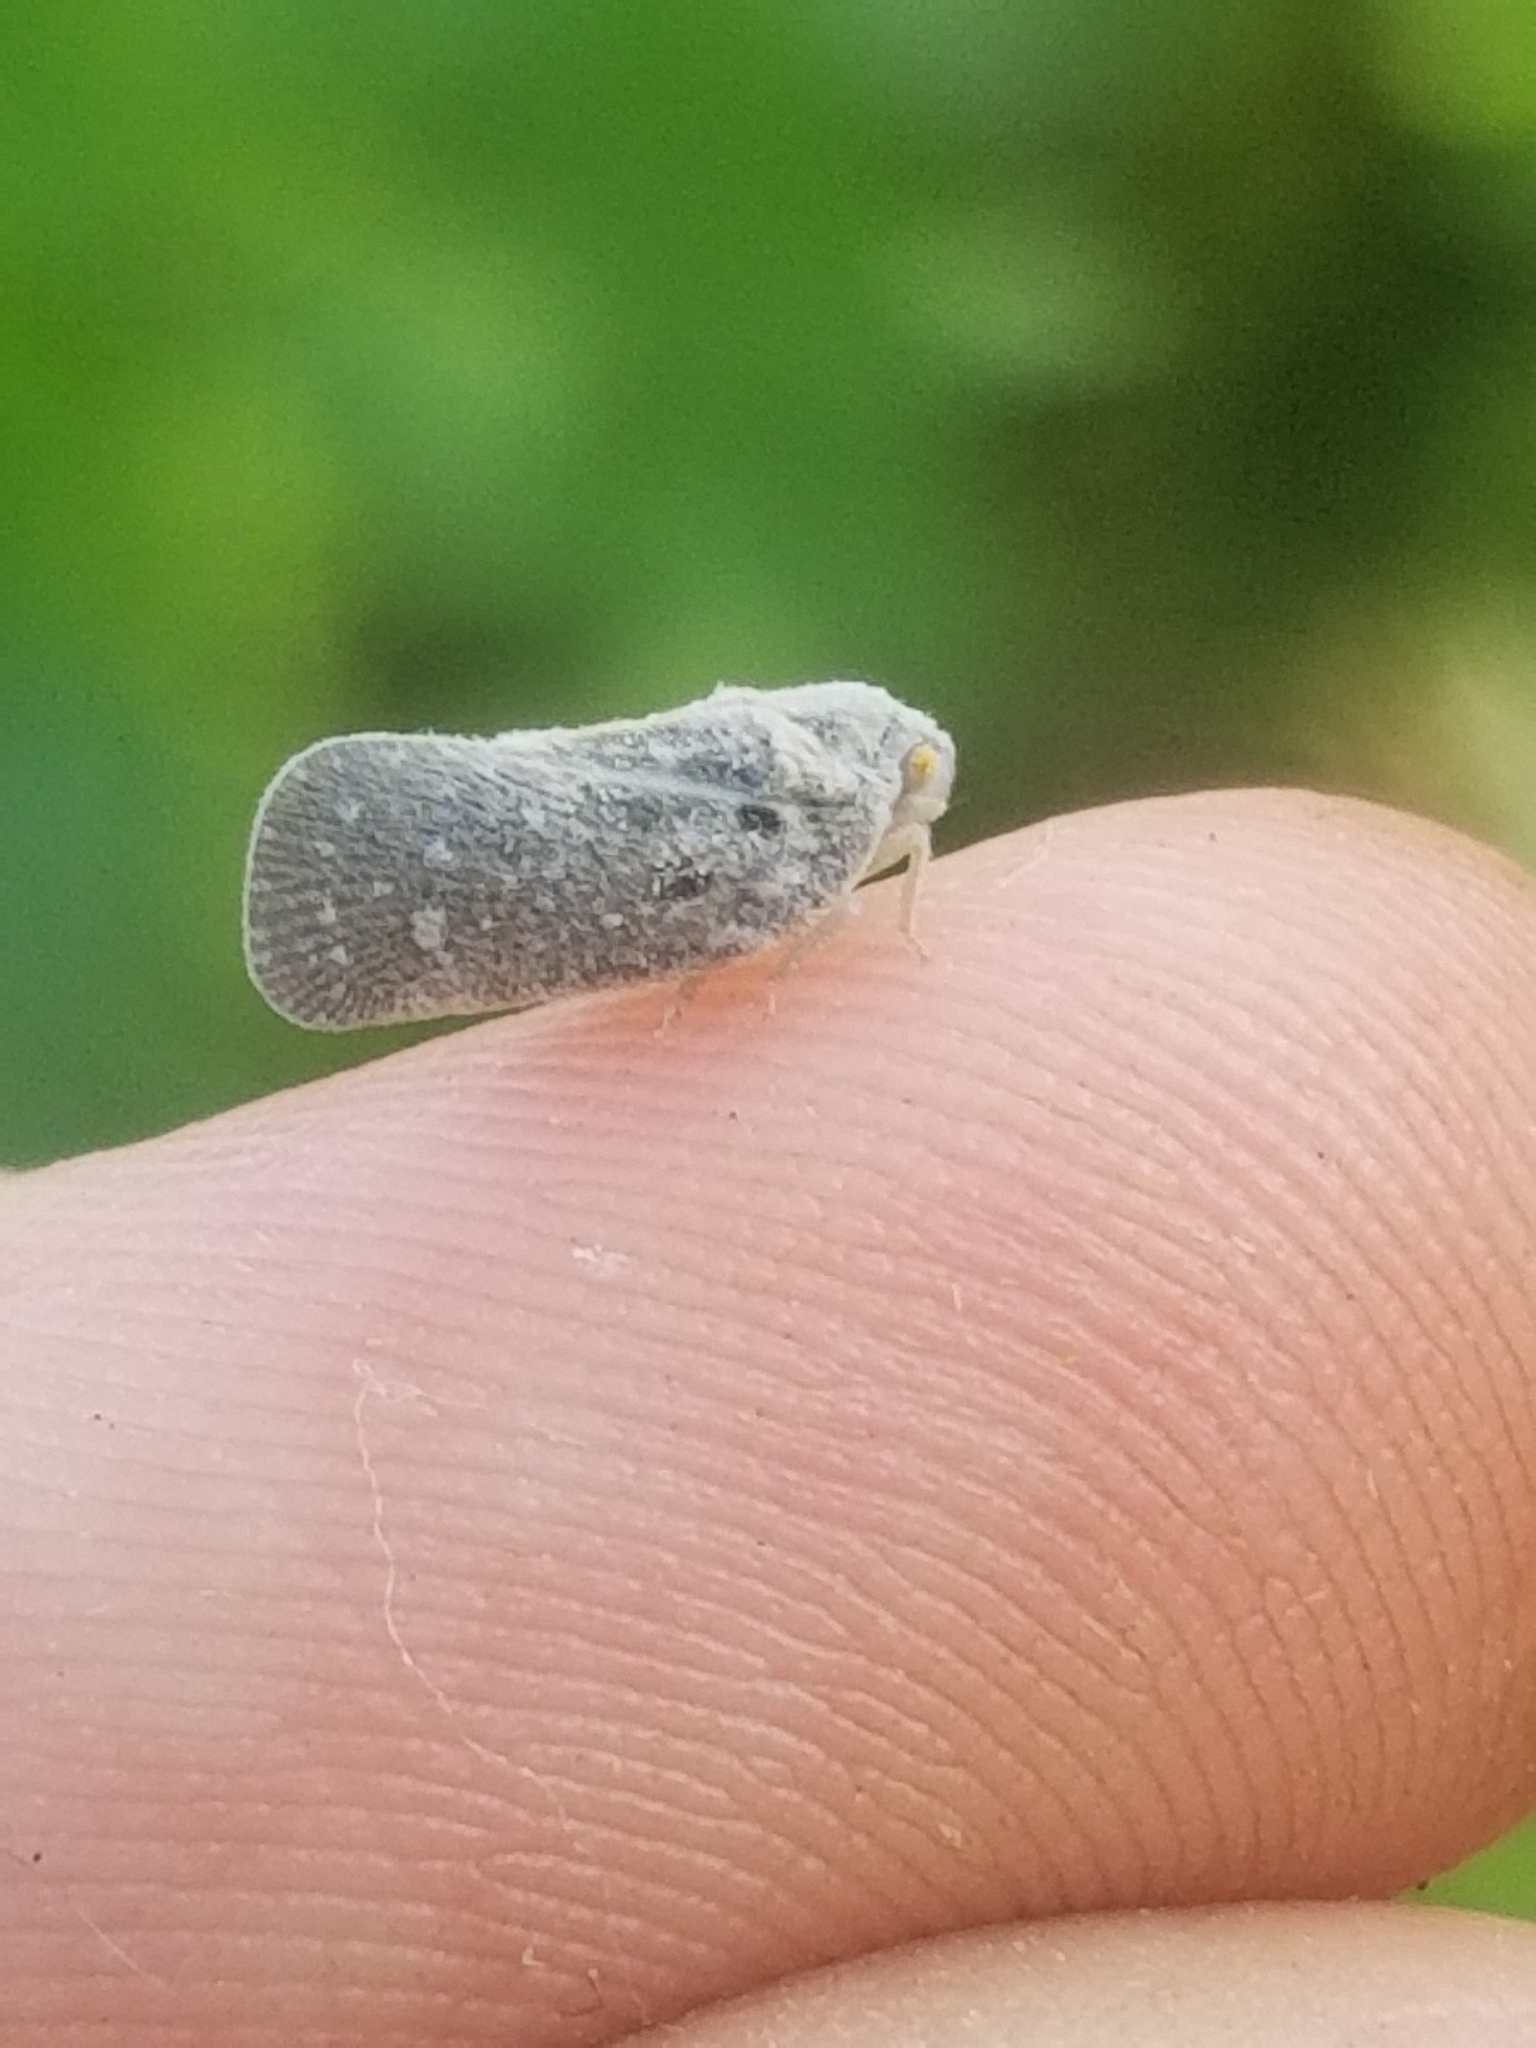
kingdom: Animalia
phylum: Arthropoda
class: Insecta
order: Hemiptera
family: Flatidae
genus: Metcalfa
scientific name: Metcalfa pruinosa
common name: Citrus flatid planthopper
